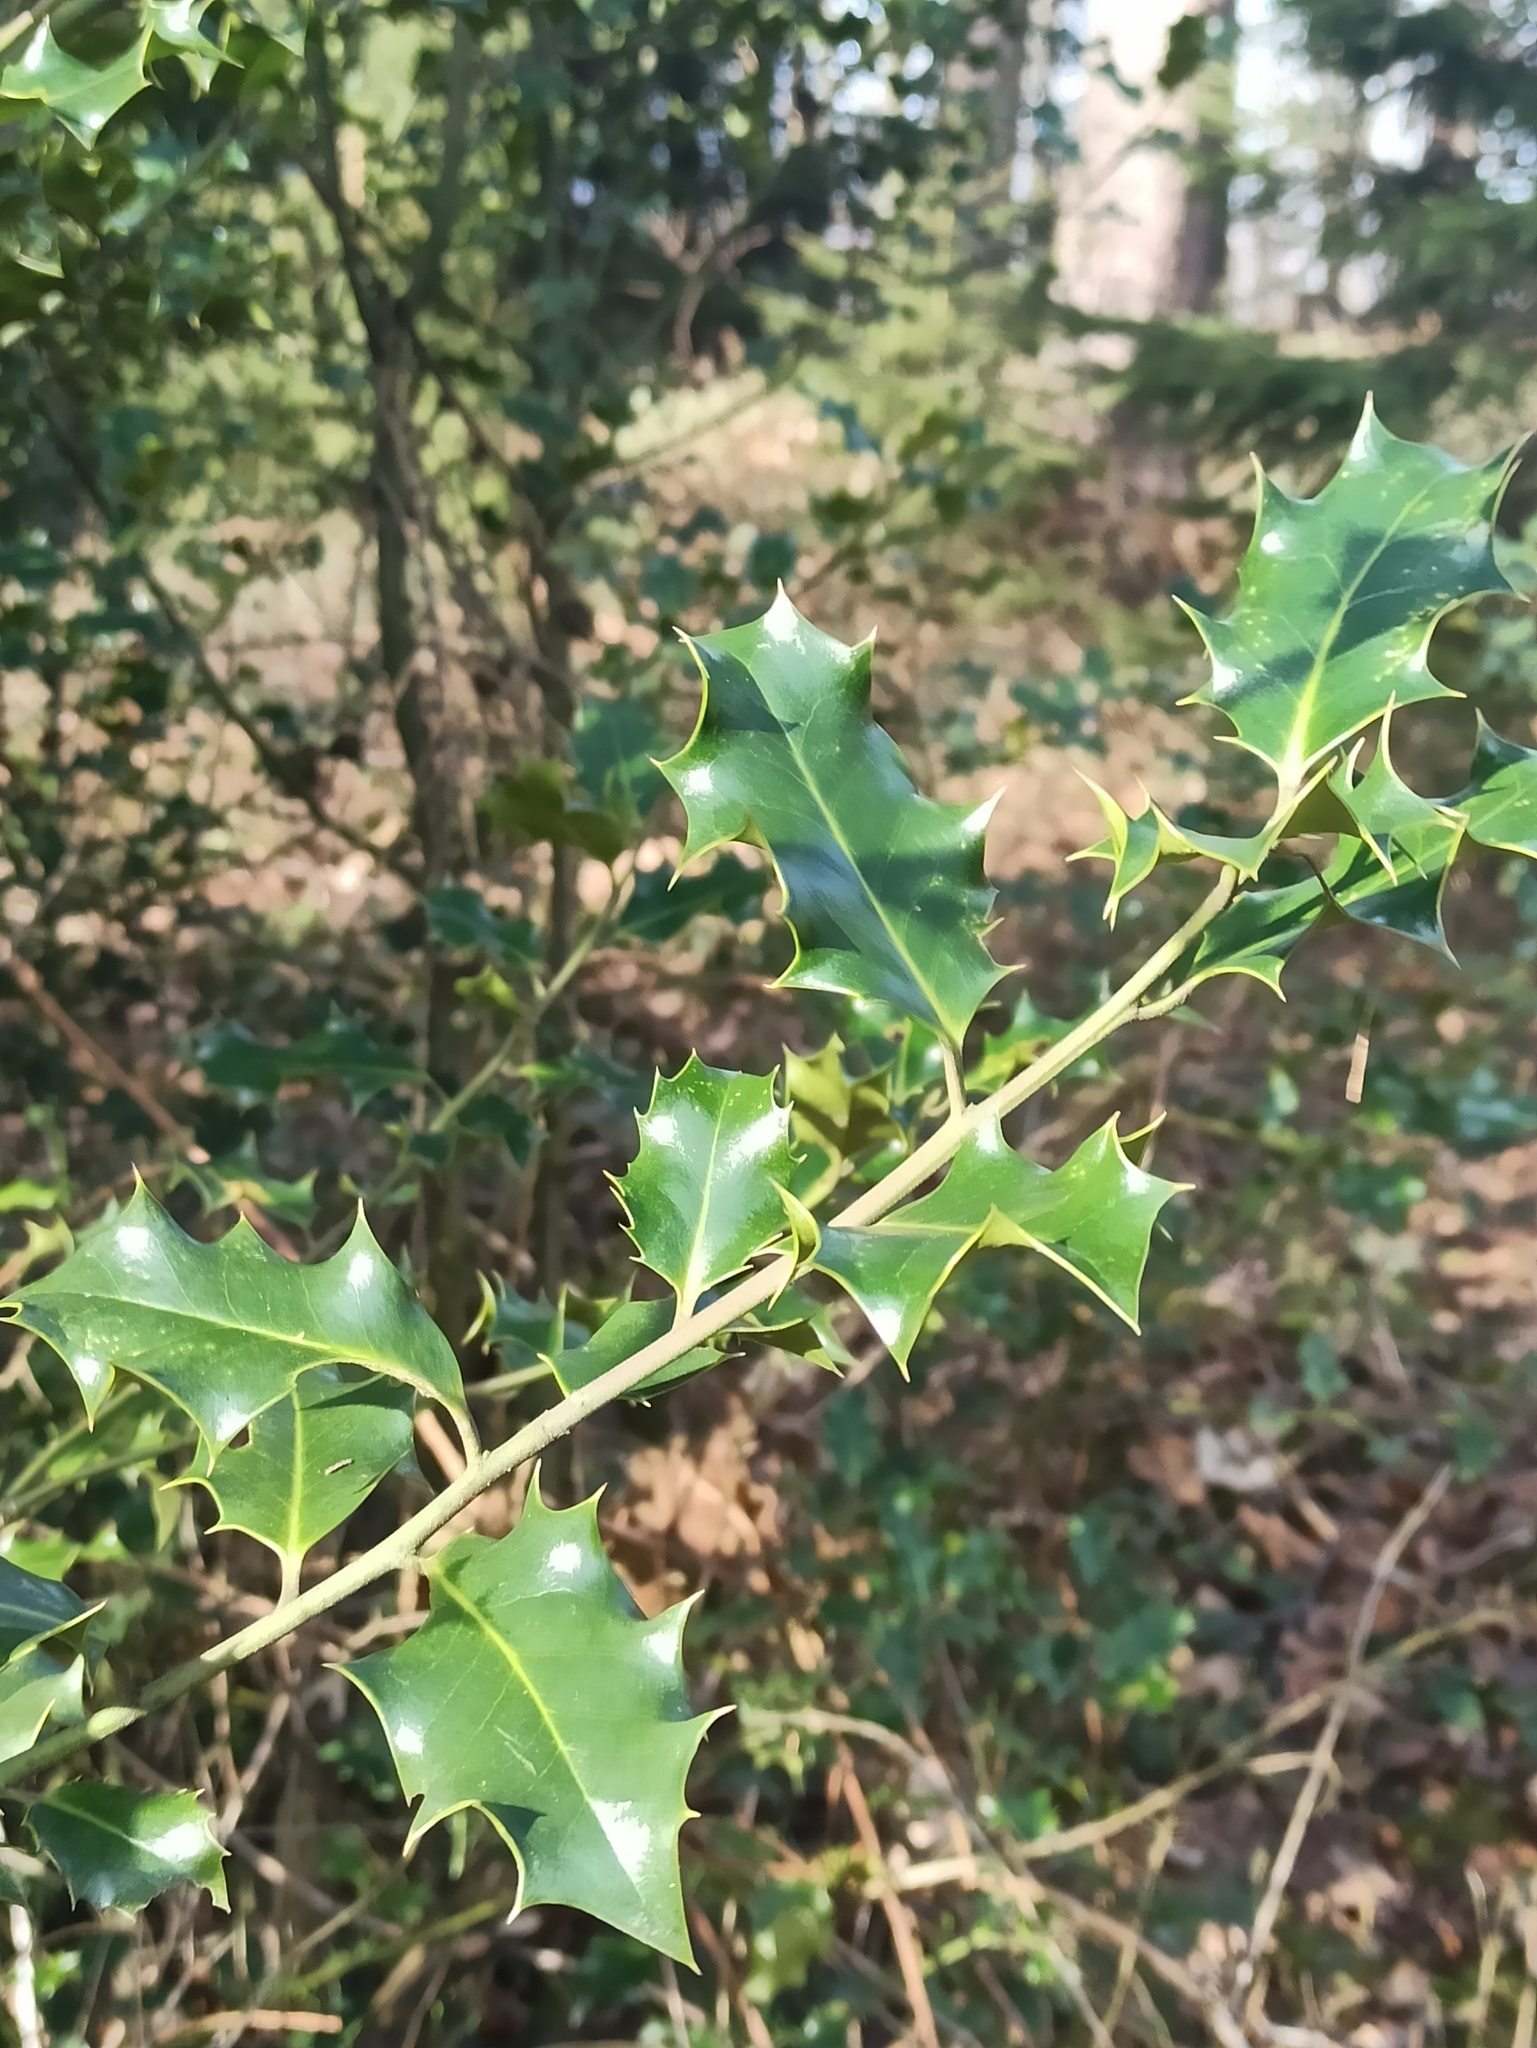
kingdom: Plantae
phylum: Tracheophyta
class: Magnoliopsida
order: Aquifoliales
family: Aquifoliaceae
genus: Ilex
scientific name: Ilex aquifolium
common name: English holly
